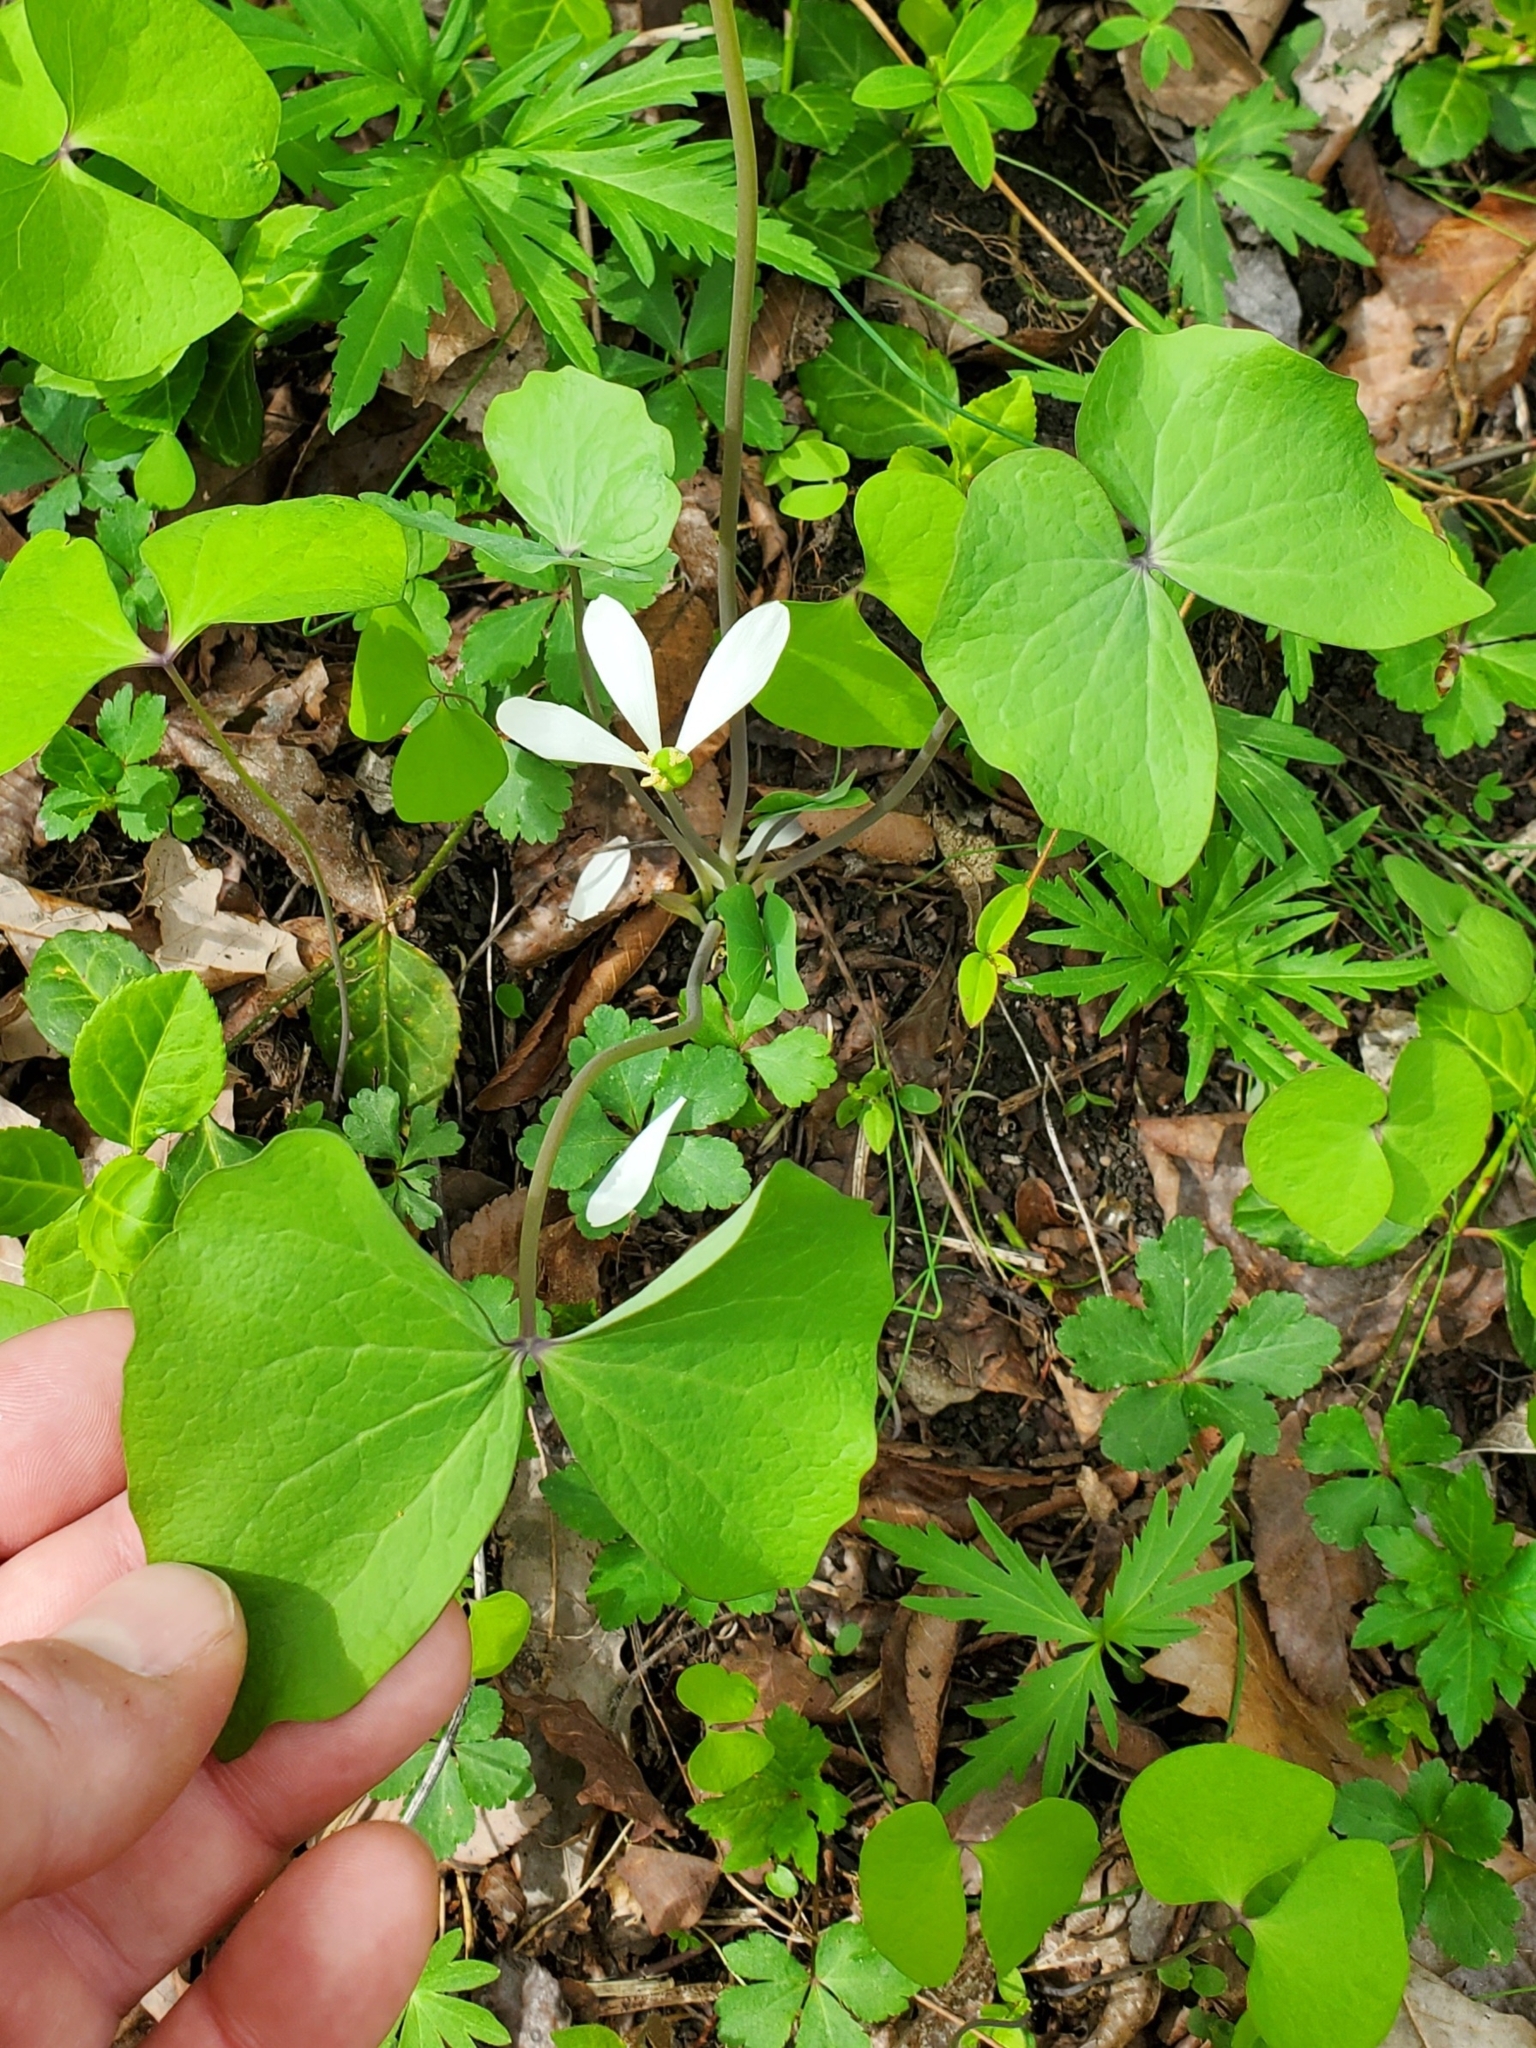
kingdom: Plantae
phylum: Tracheophyta
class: Magnoliopsida
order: Ranunculales
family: Berberidaceae
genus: Jeffersonia
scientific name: Jeffersonia diphylla
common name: Rheumatism-root
